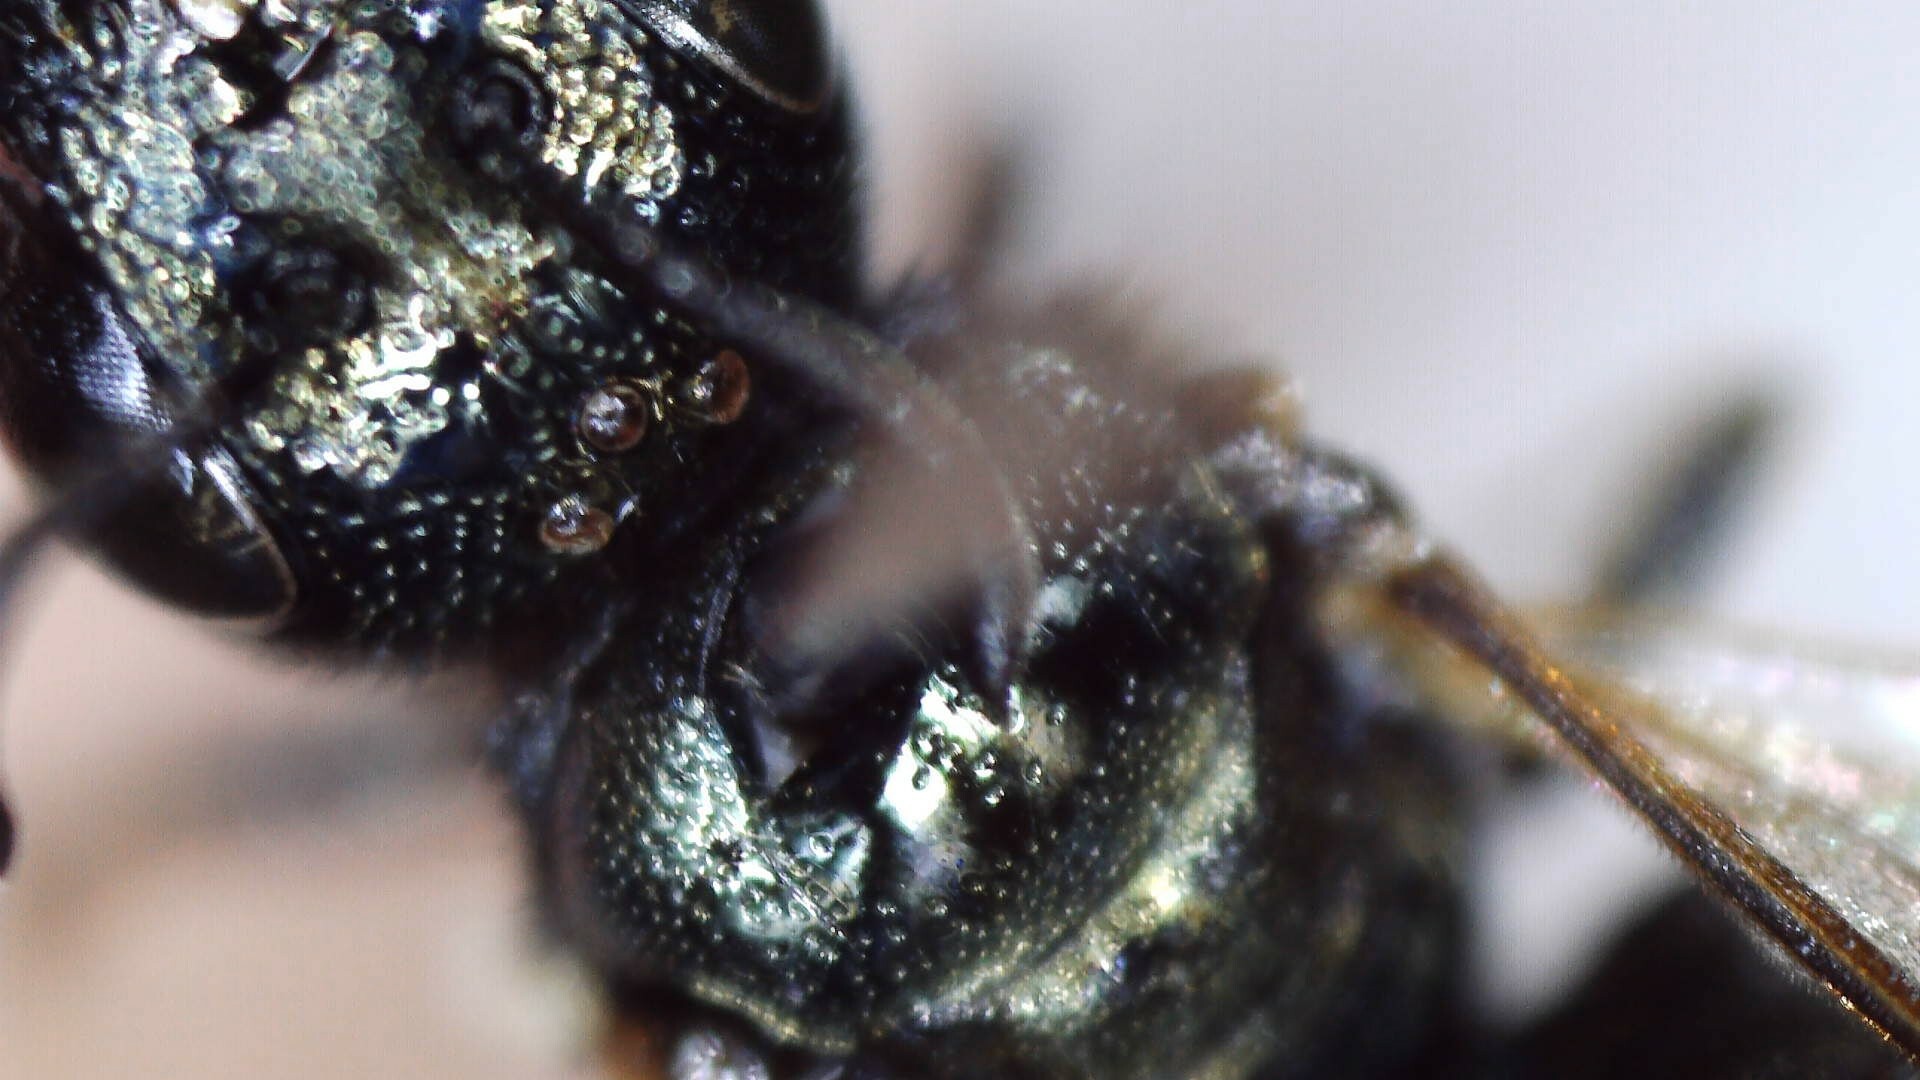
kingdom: Animalia
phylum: Arthropoda
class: Insecta
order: Hymenoptera
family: Apidae
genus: Zadontomerus
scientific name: Zadontomerus
